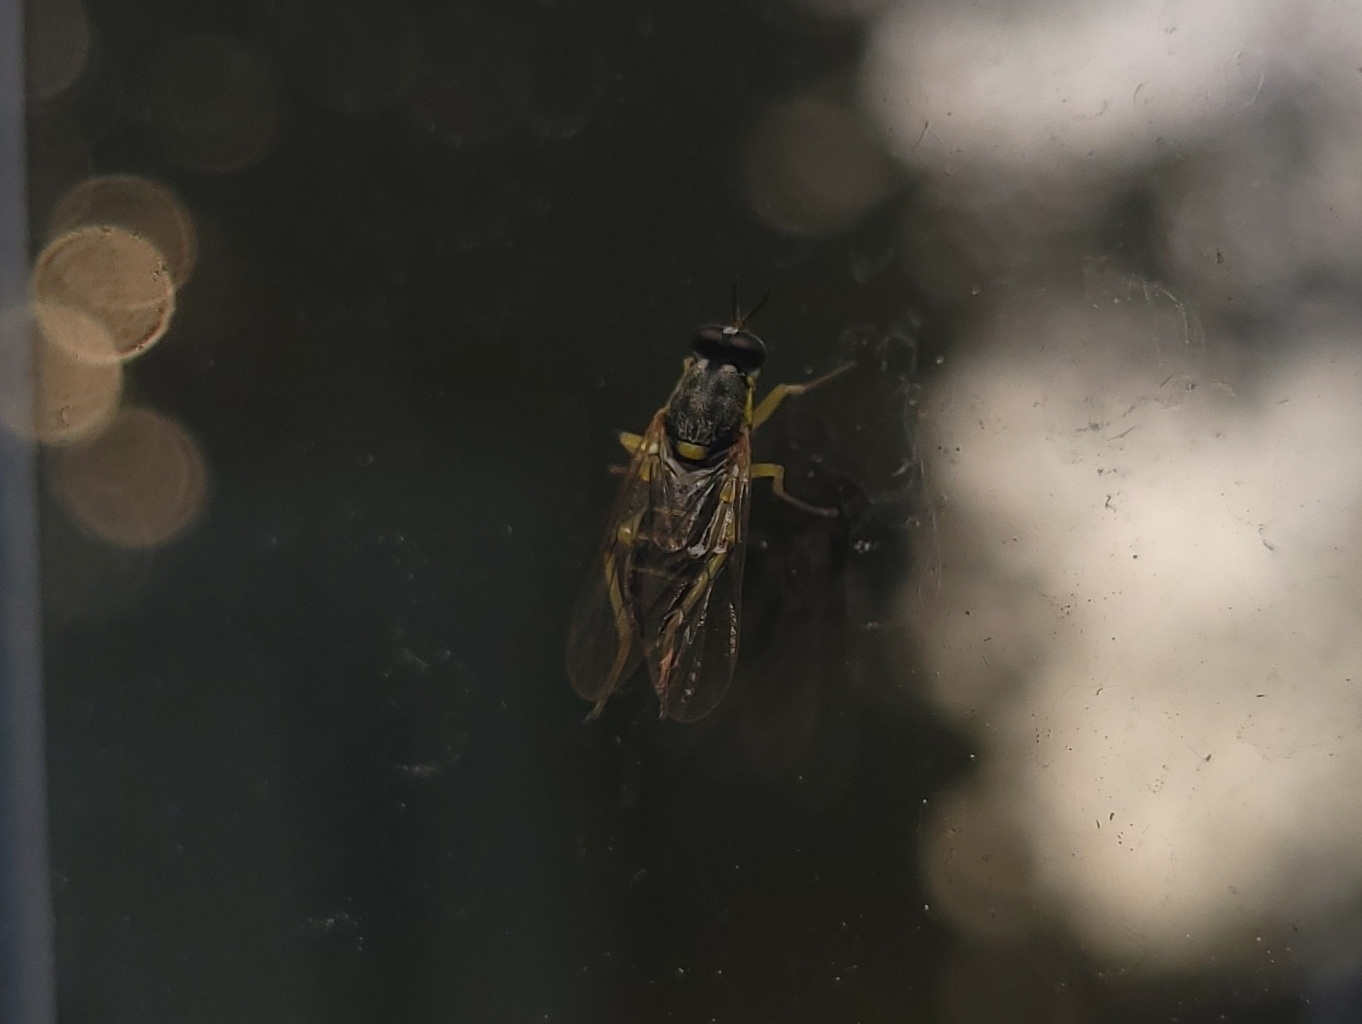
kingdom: Animalia
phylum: Arthropoda
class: Insecta
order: Diptera
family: Xylomyidae
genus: Solva
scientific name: Solva pallipes
